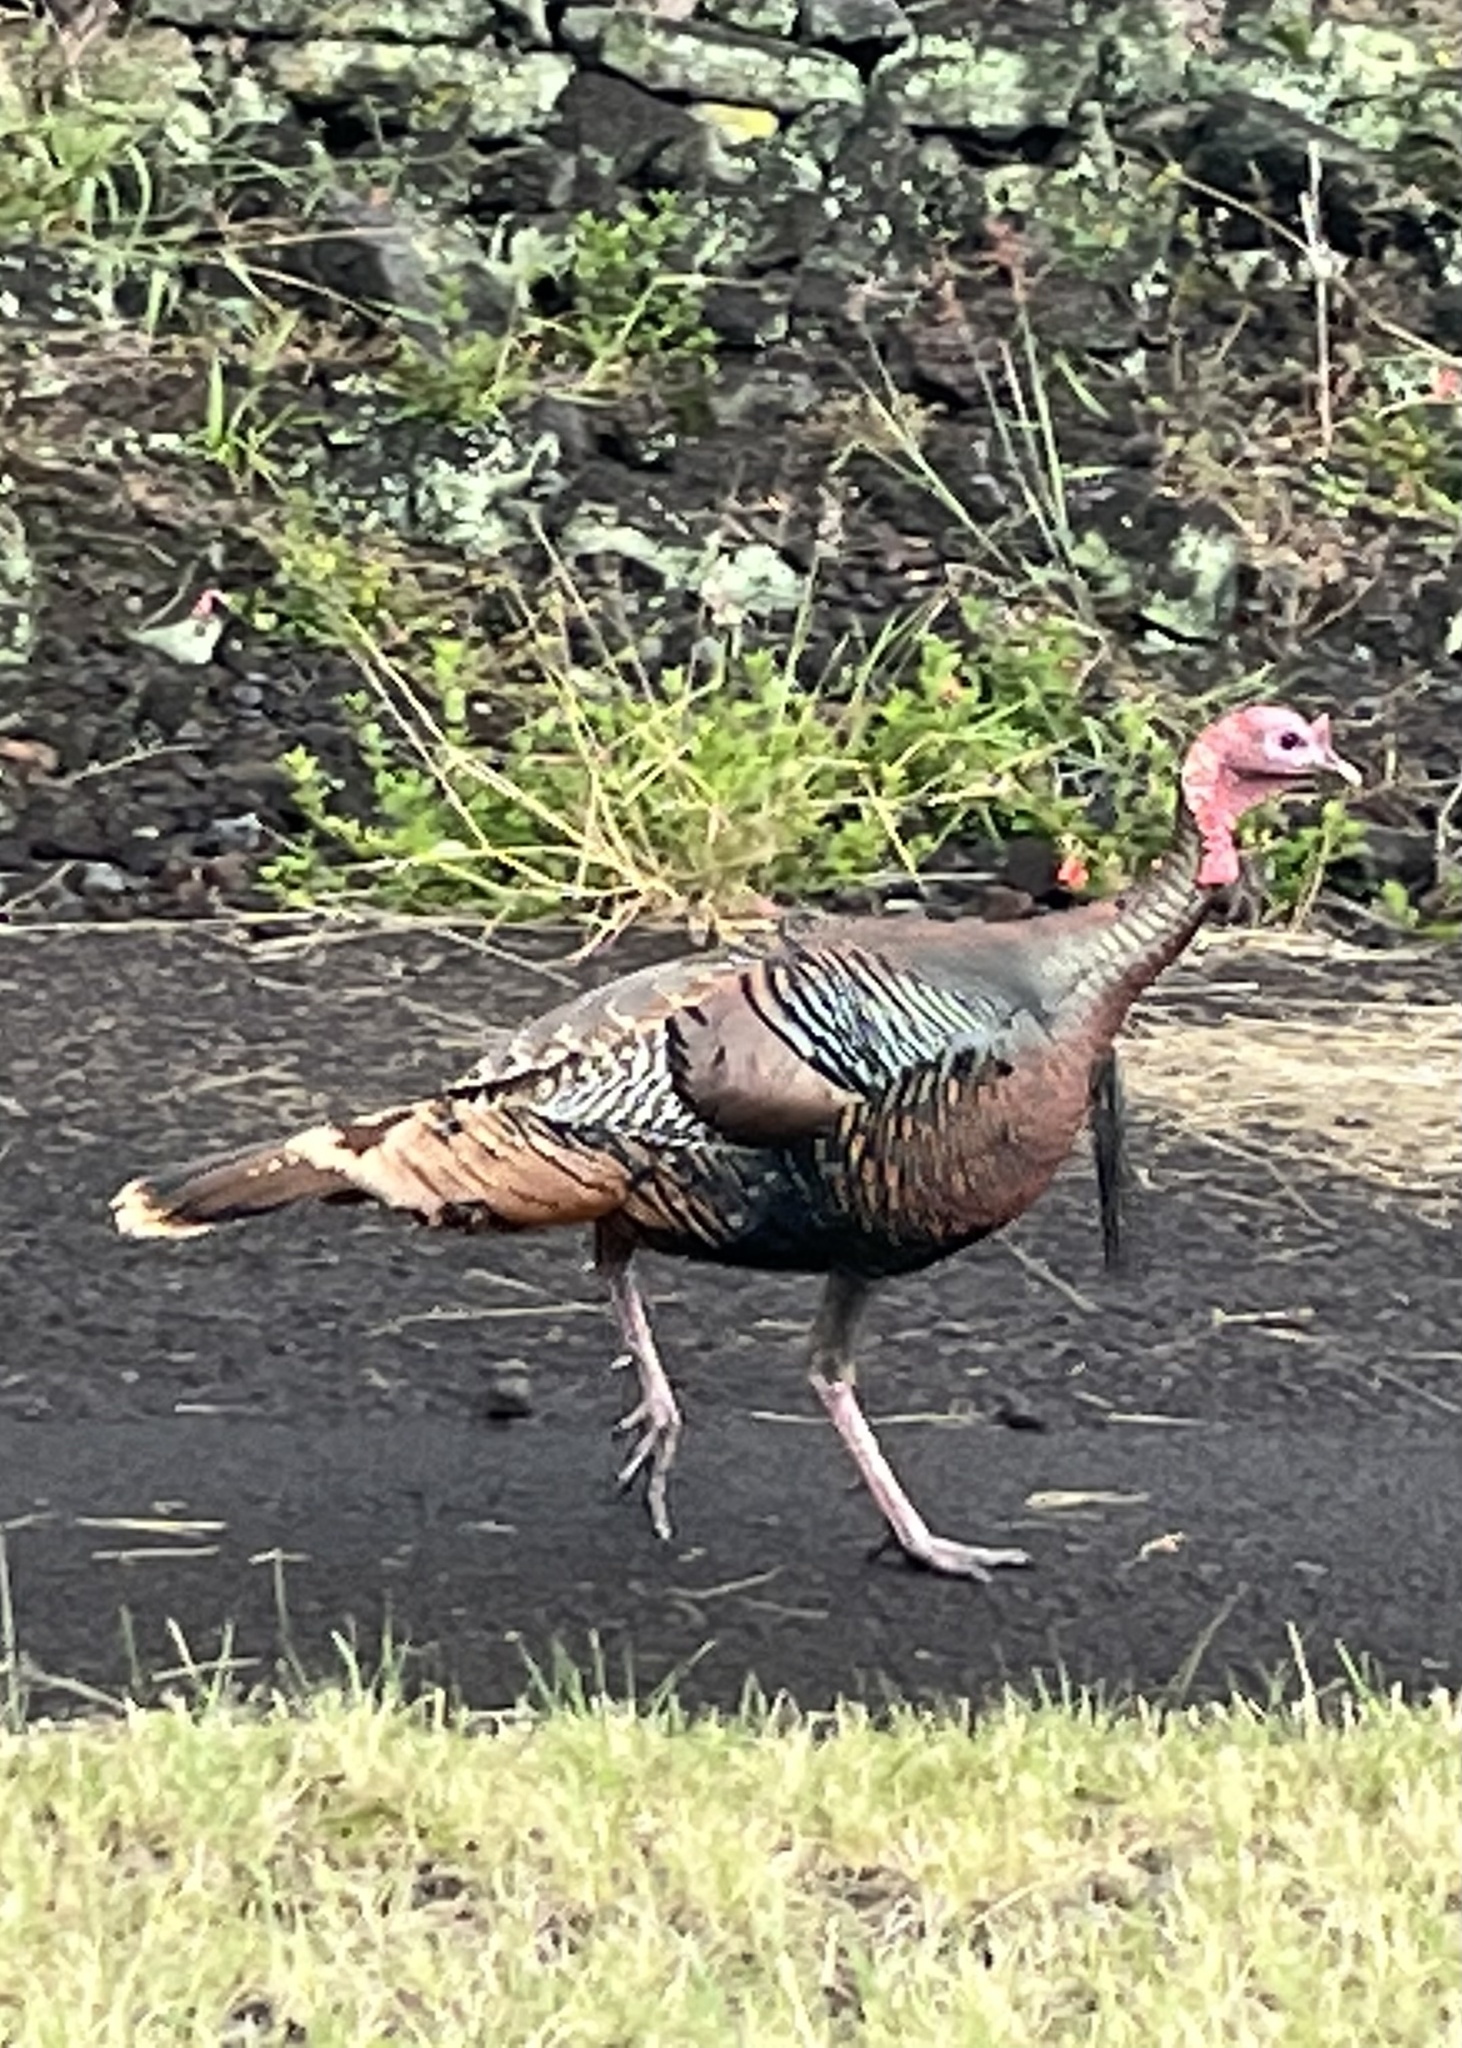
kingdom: Animalia
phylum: Chordata
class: Aves
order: Galliformes
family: Phasianidae
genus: Meleagris
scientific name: Meleagris gallopavo
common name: Wild turkey
